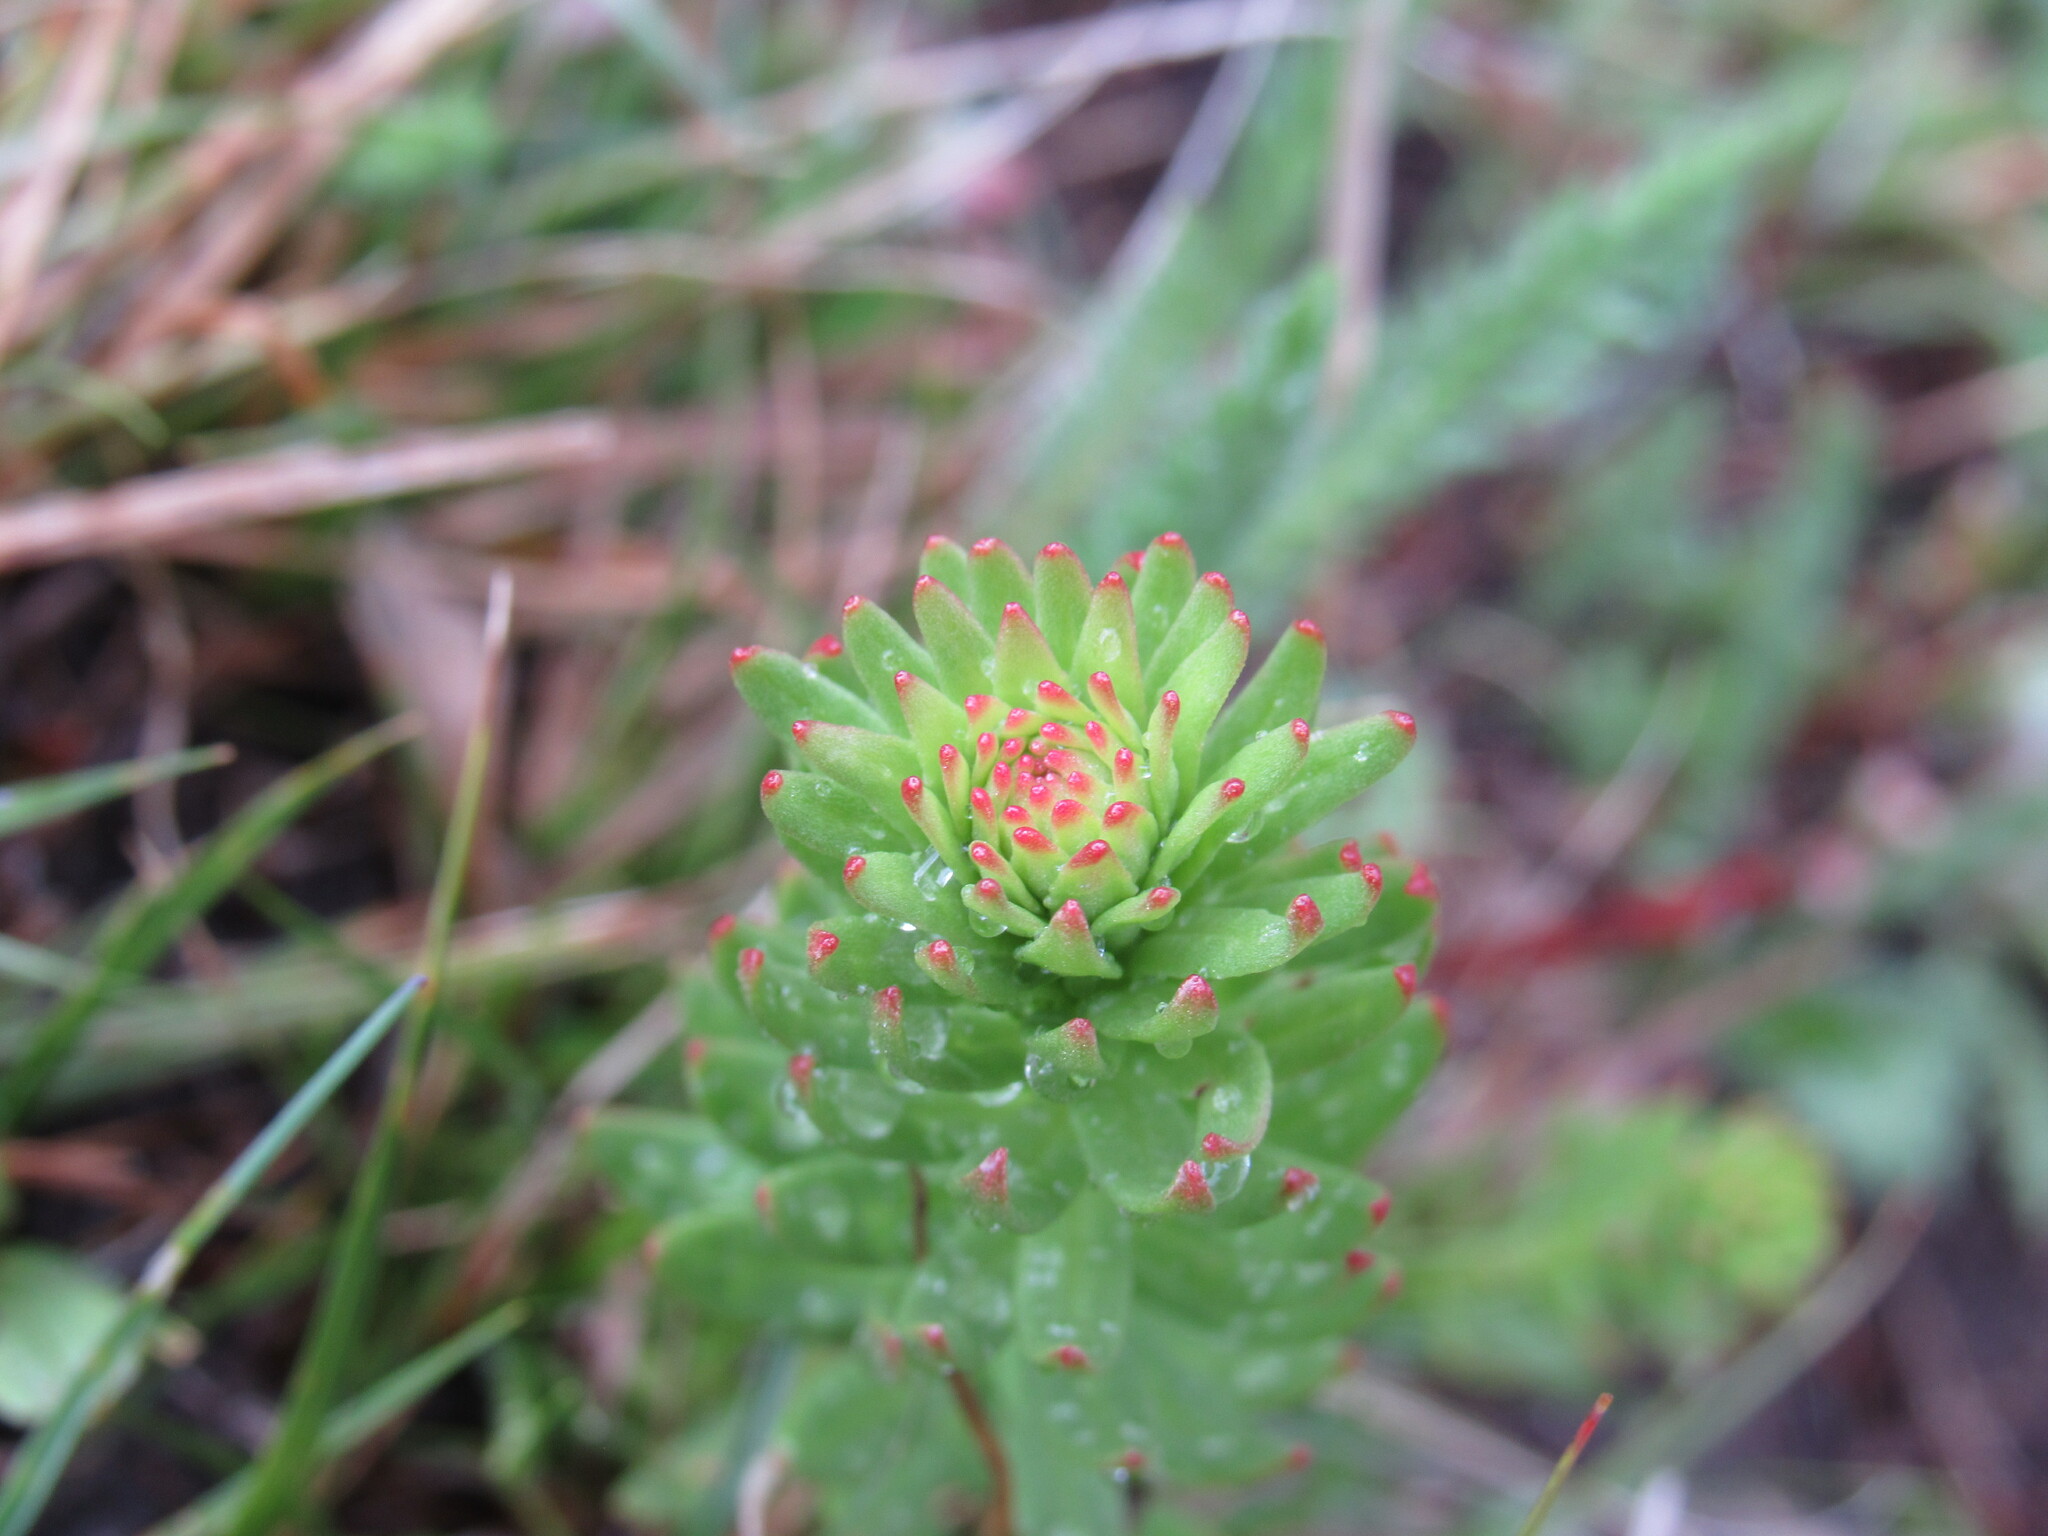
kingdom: Plantae
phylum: Tracheophyta
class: Magnoliopsida
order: Saxifragales
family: Crassulaceae
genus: Rhodiola
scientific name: Rhodiola rhodantha
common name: Red orpine
